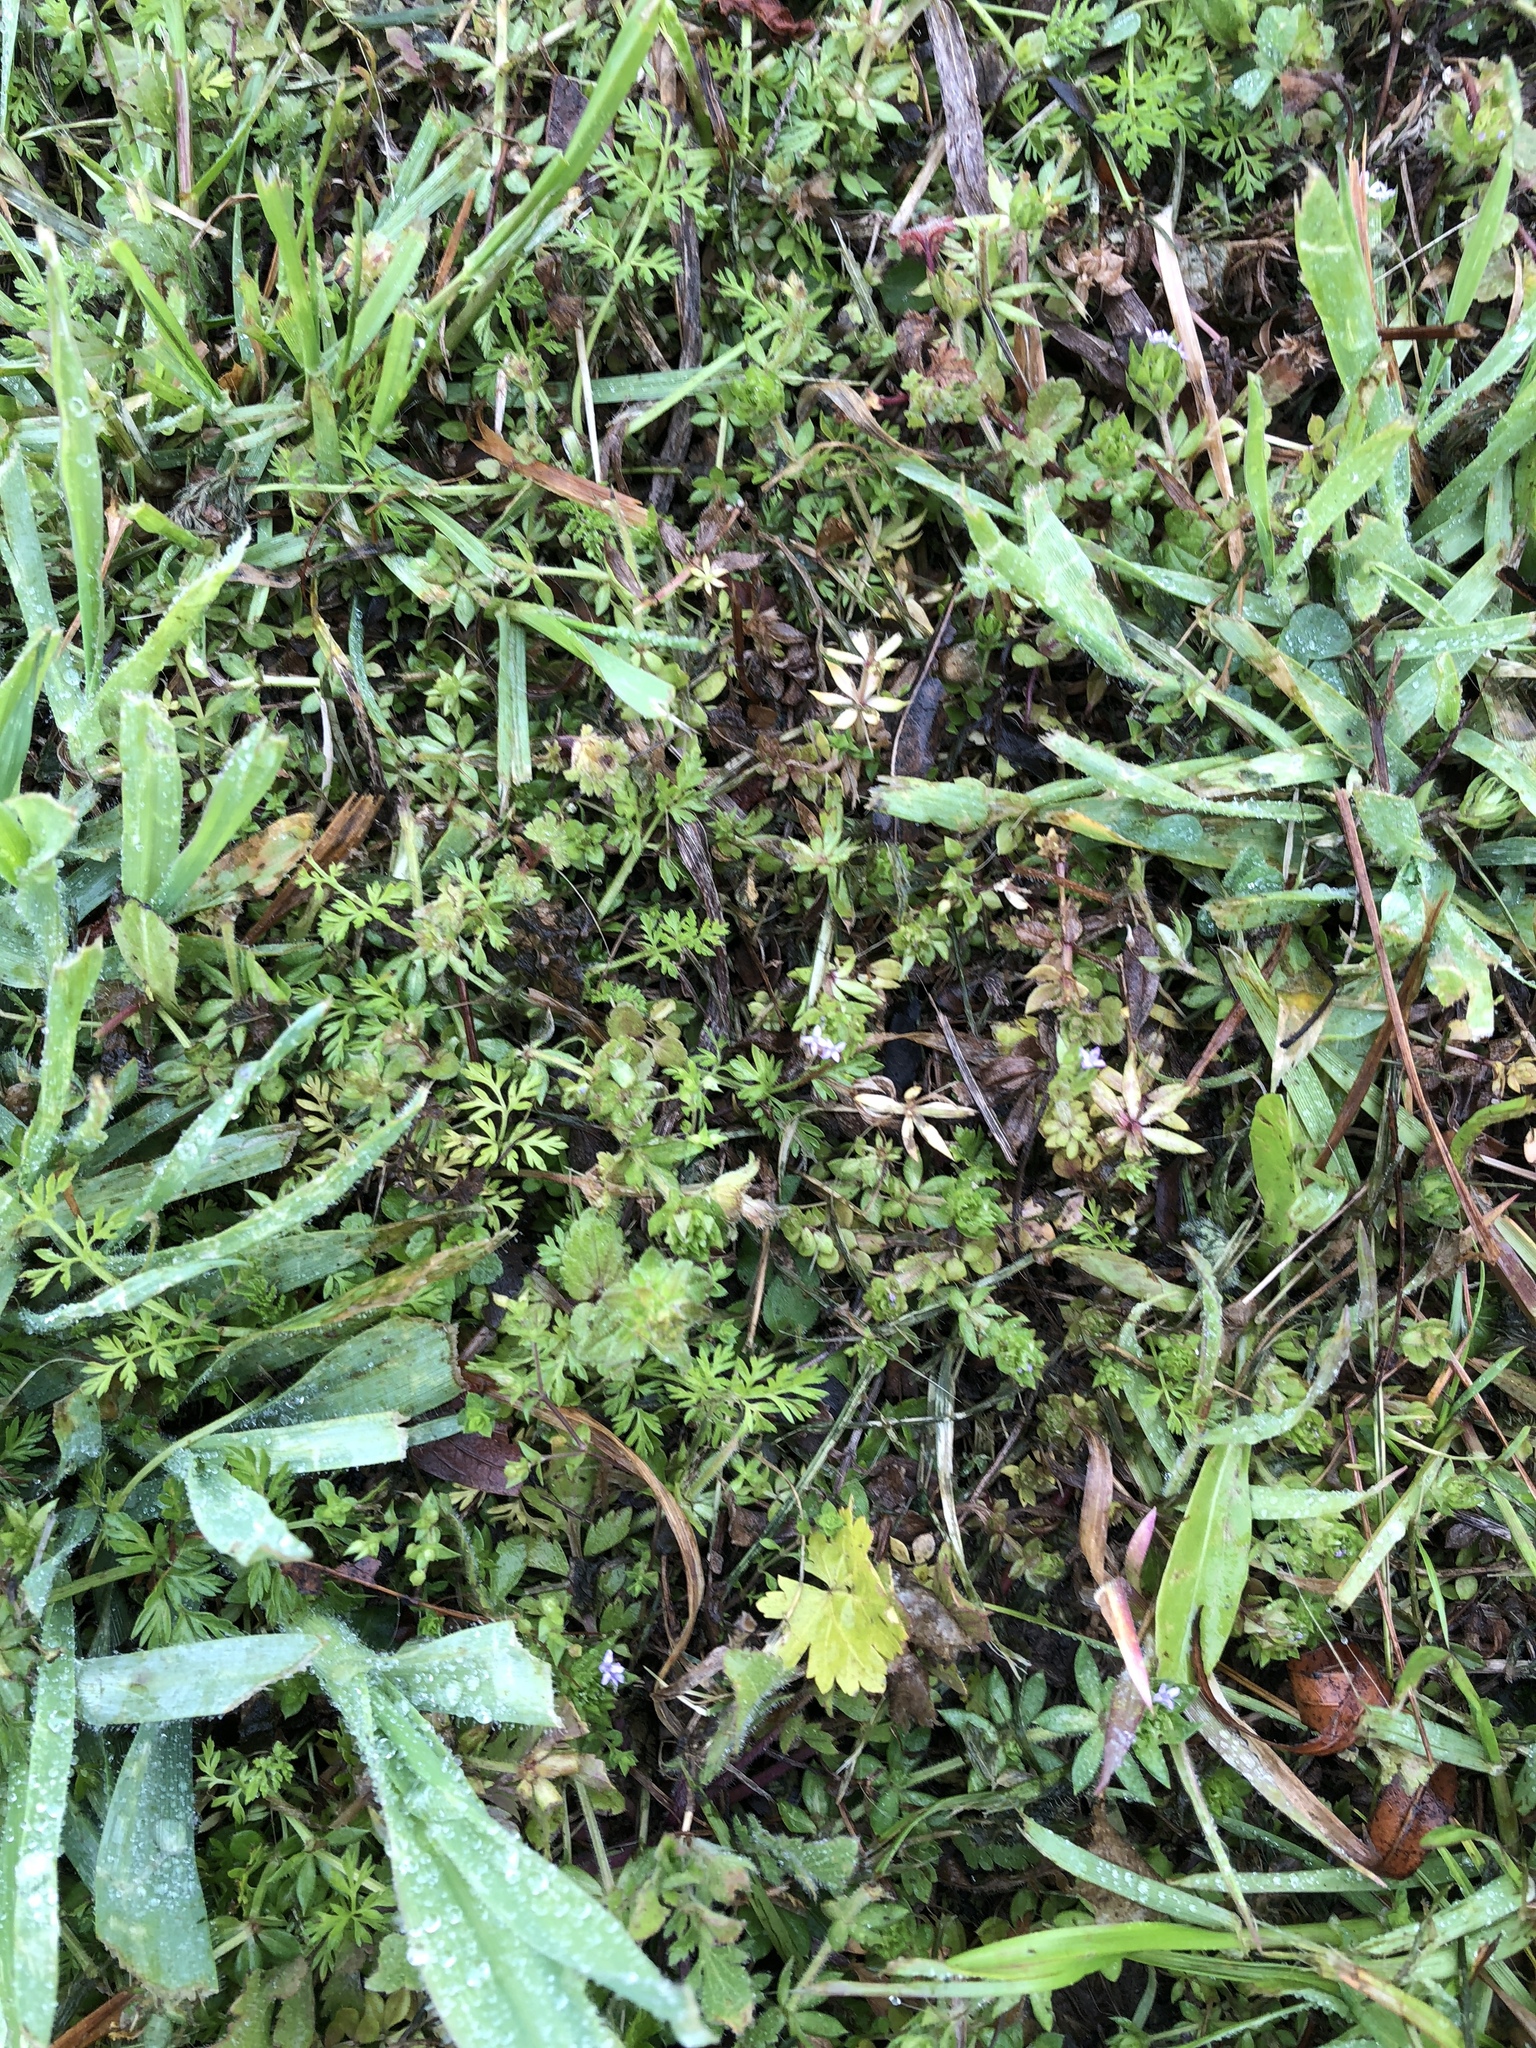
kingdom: Plantae
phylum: Tracheophyta
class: Magnoliopsida
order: Gentianales
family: Rubiaceae
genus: Sherardia
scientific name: Sherardia arvensis
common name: Field madder
